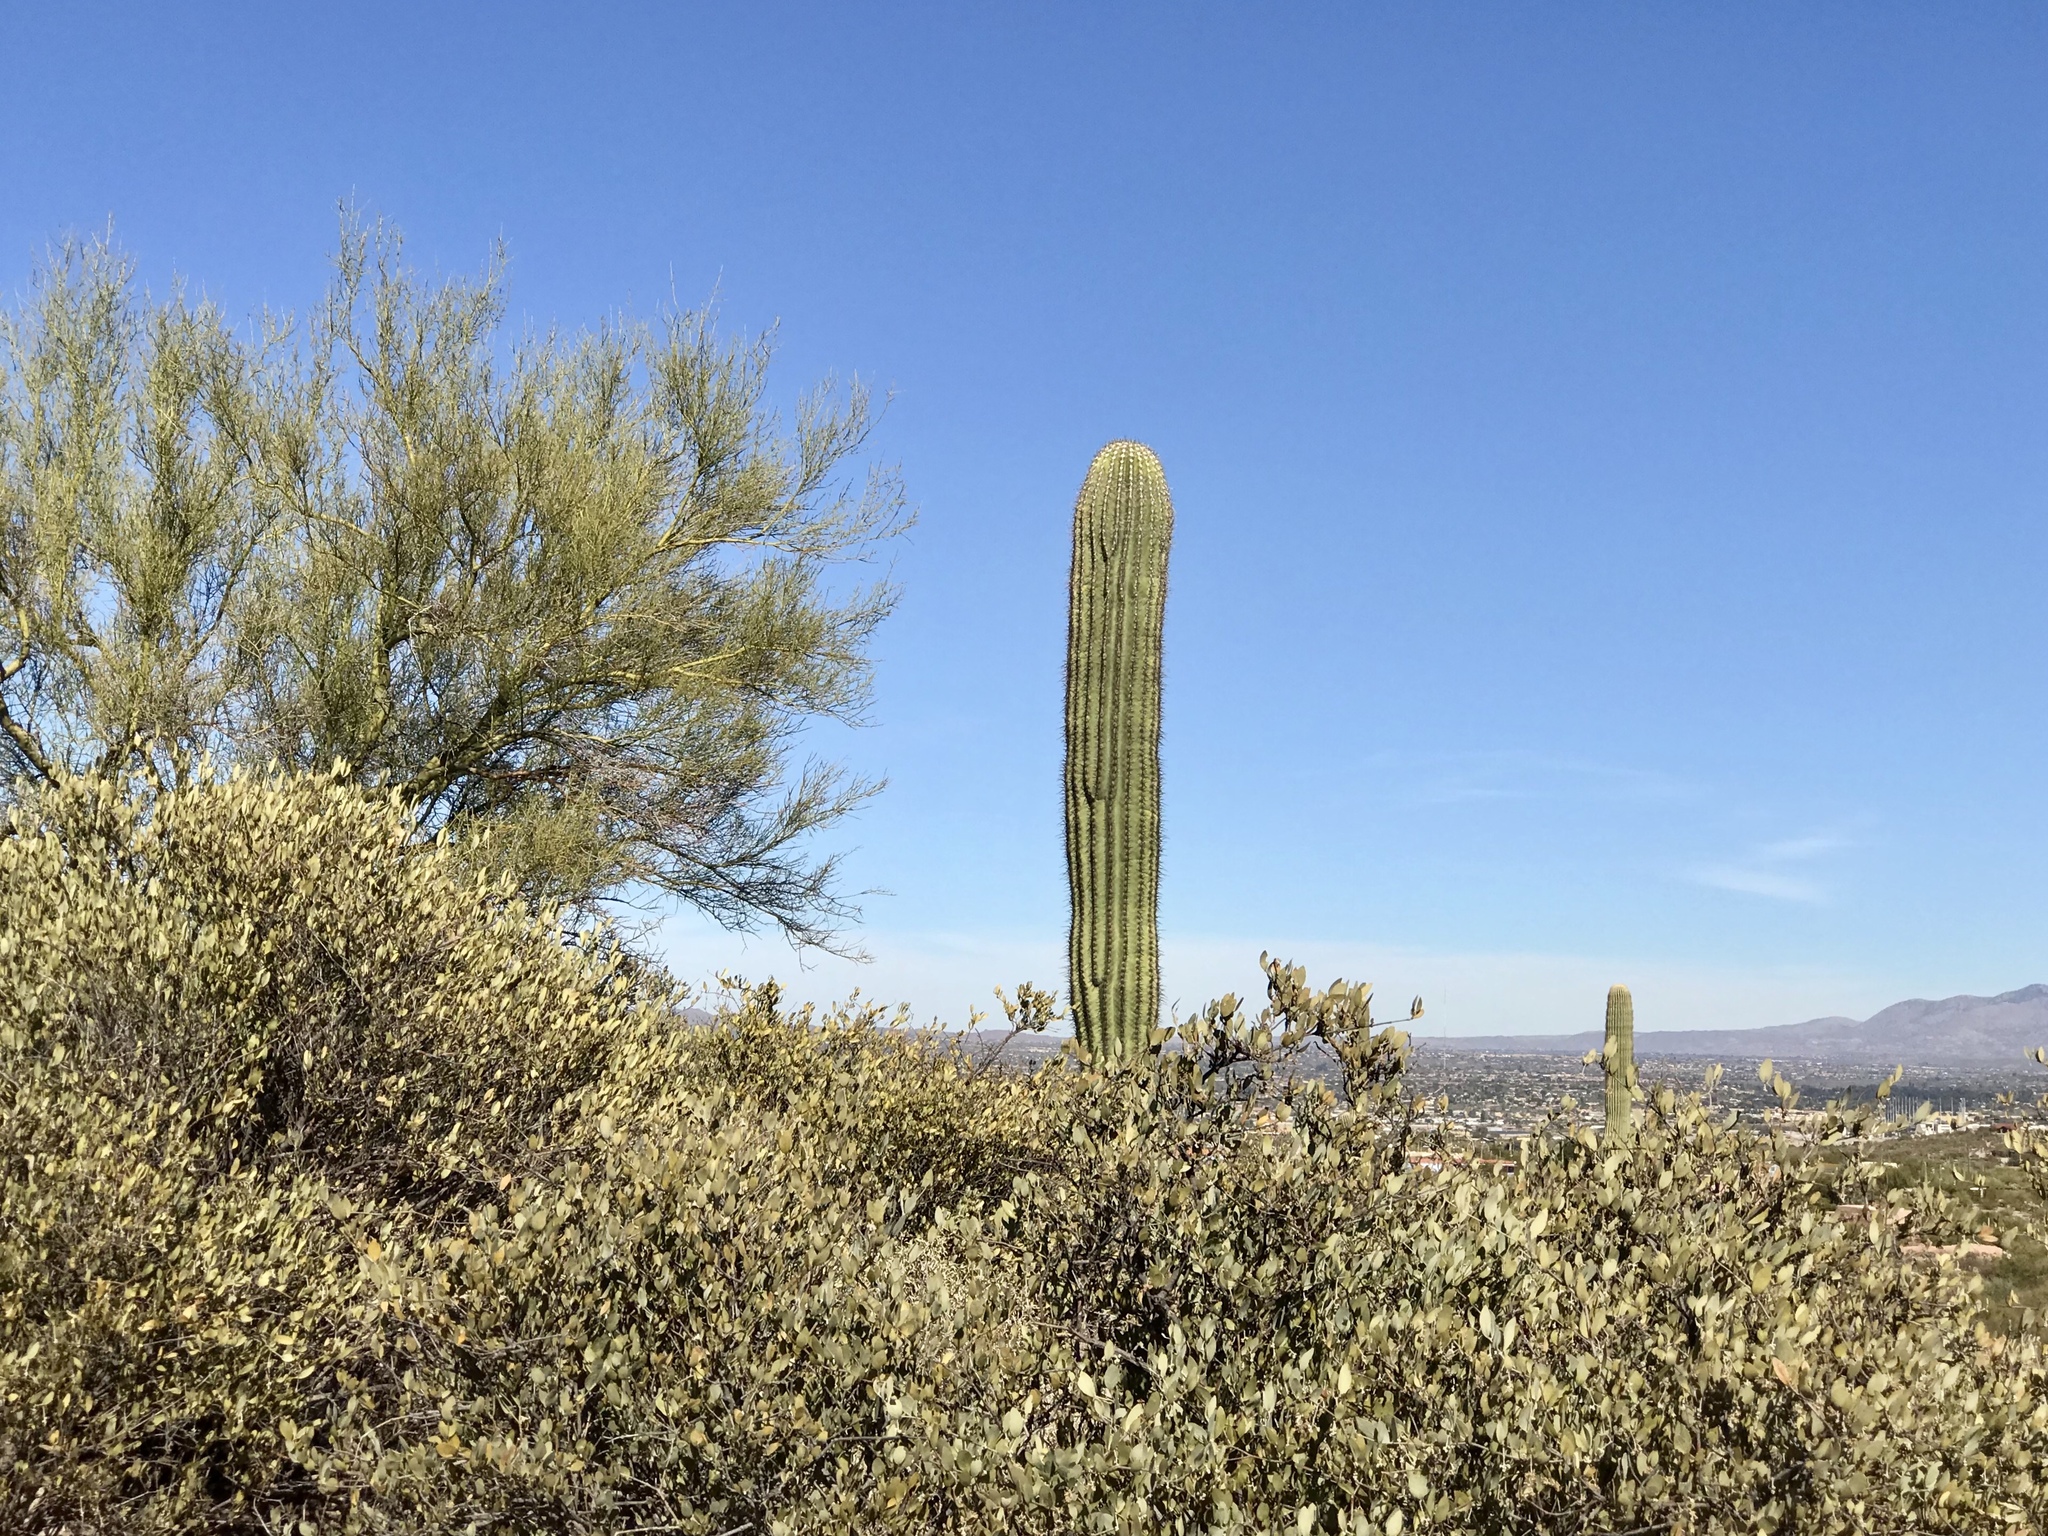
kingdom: Plantae
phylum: Tracheophyta
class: Magnoliopsida
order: Caryophyllales
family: Simmondsiaceae
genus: Simmondsia
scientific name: Simmondsia chinensis
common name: Jojoba
